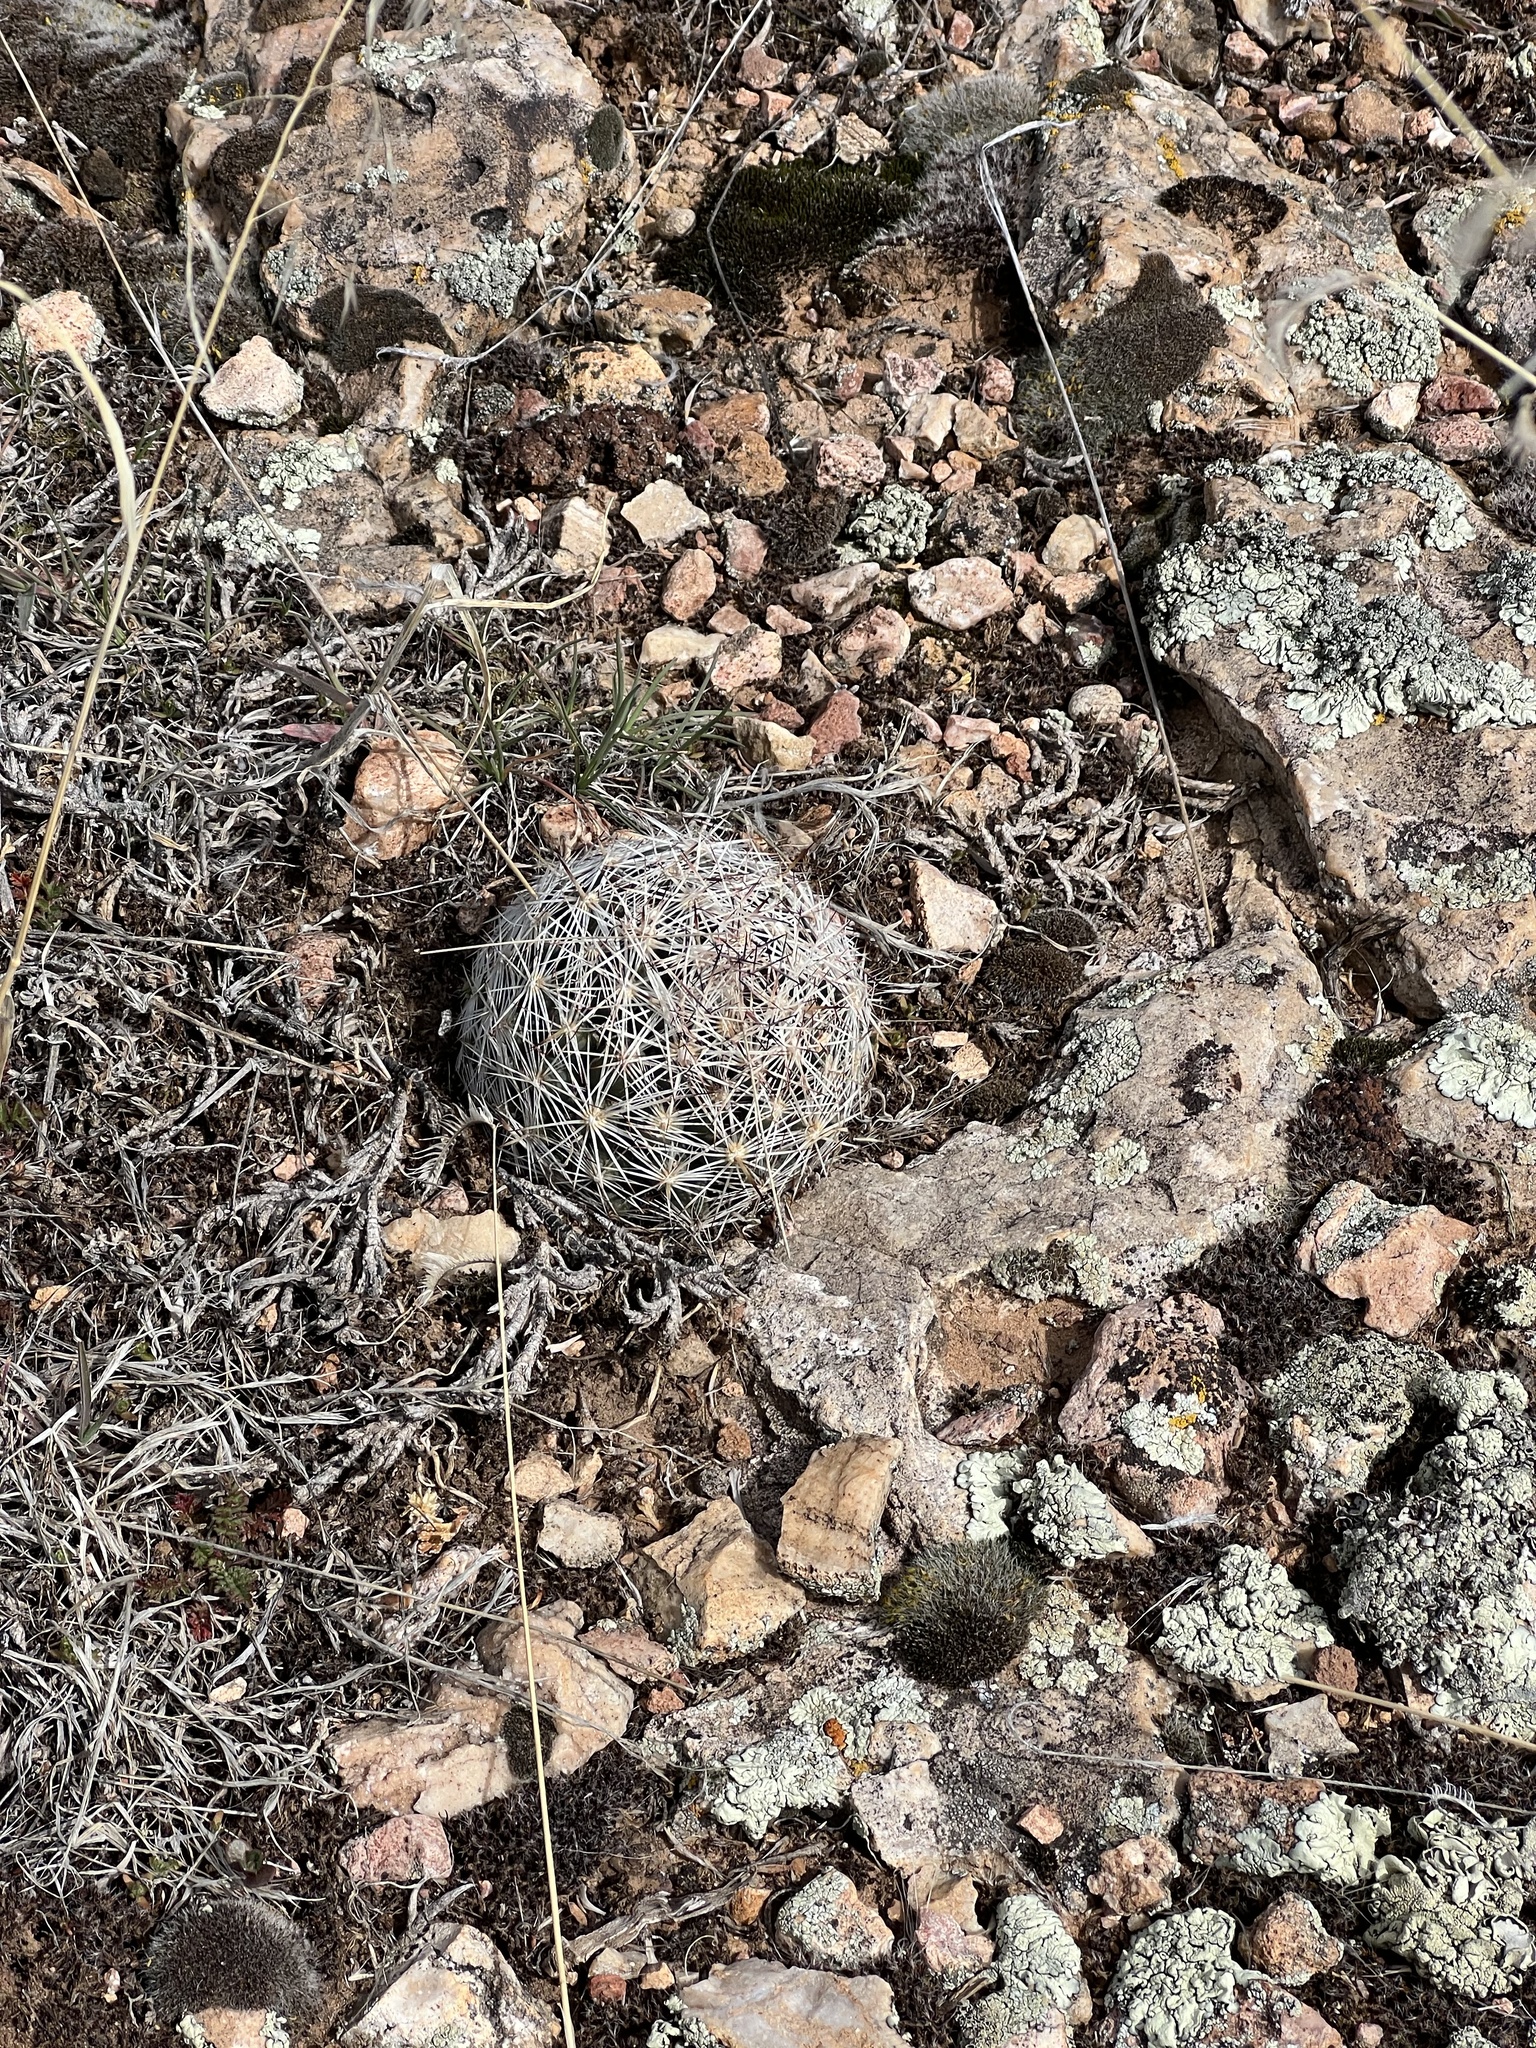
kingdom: Plantae
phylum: Tracheophyta
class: Magnoliopsida
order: Caryophyllales
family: Cactaceae
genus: Pelecyphora
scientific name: Pelecyphora vivipara
